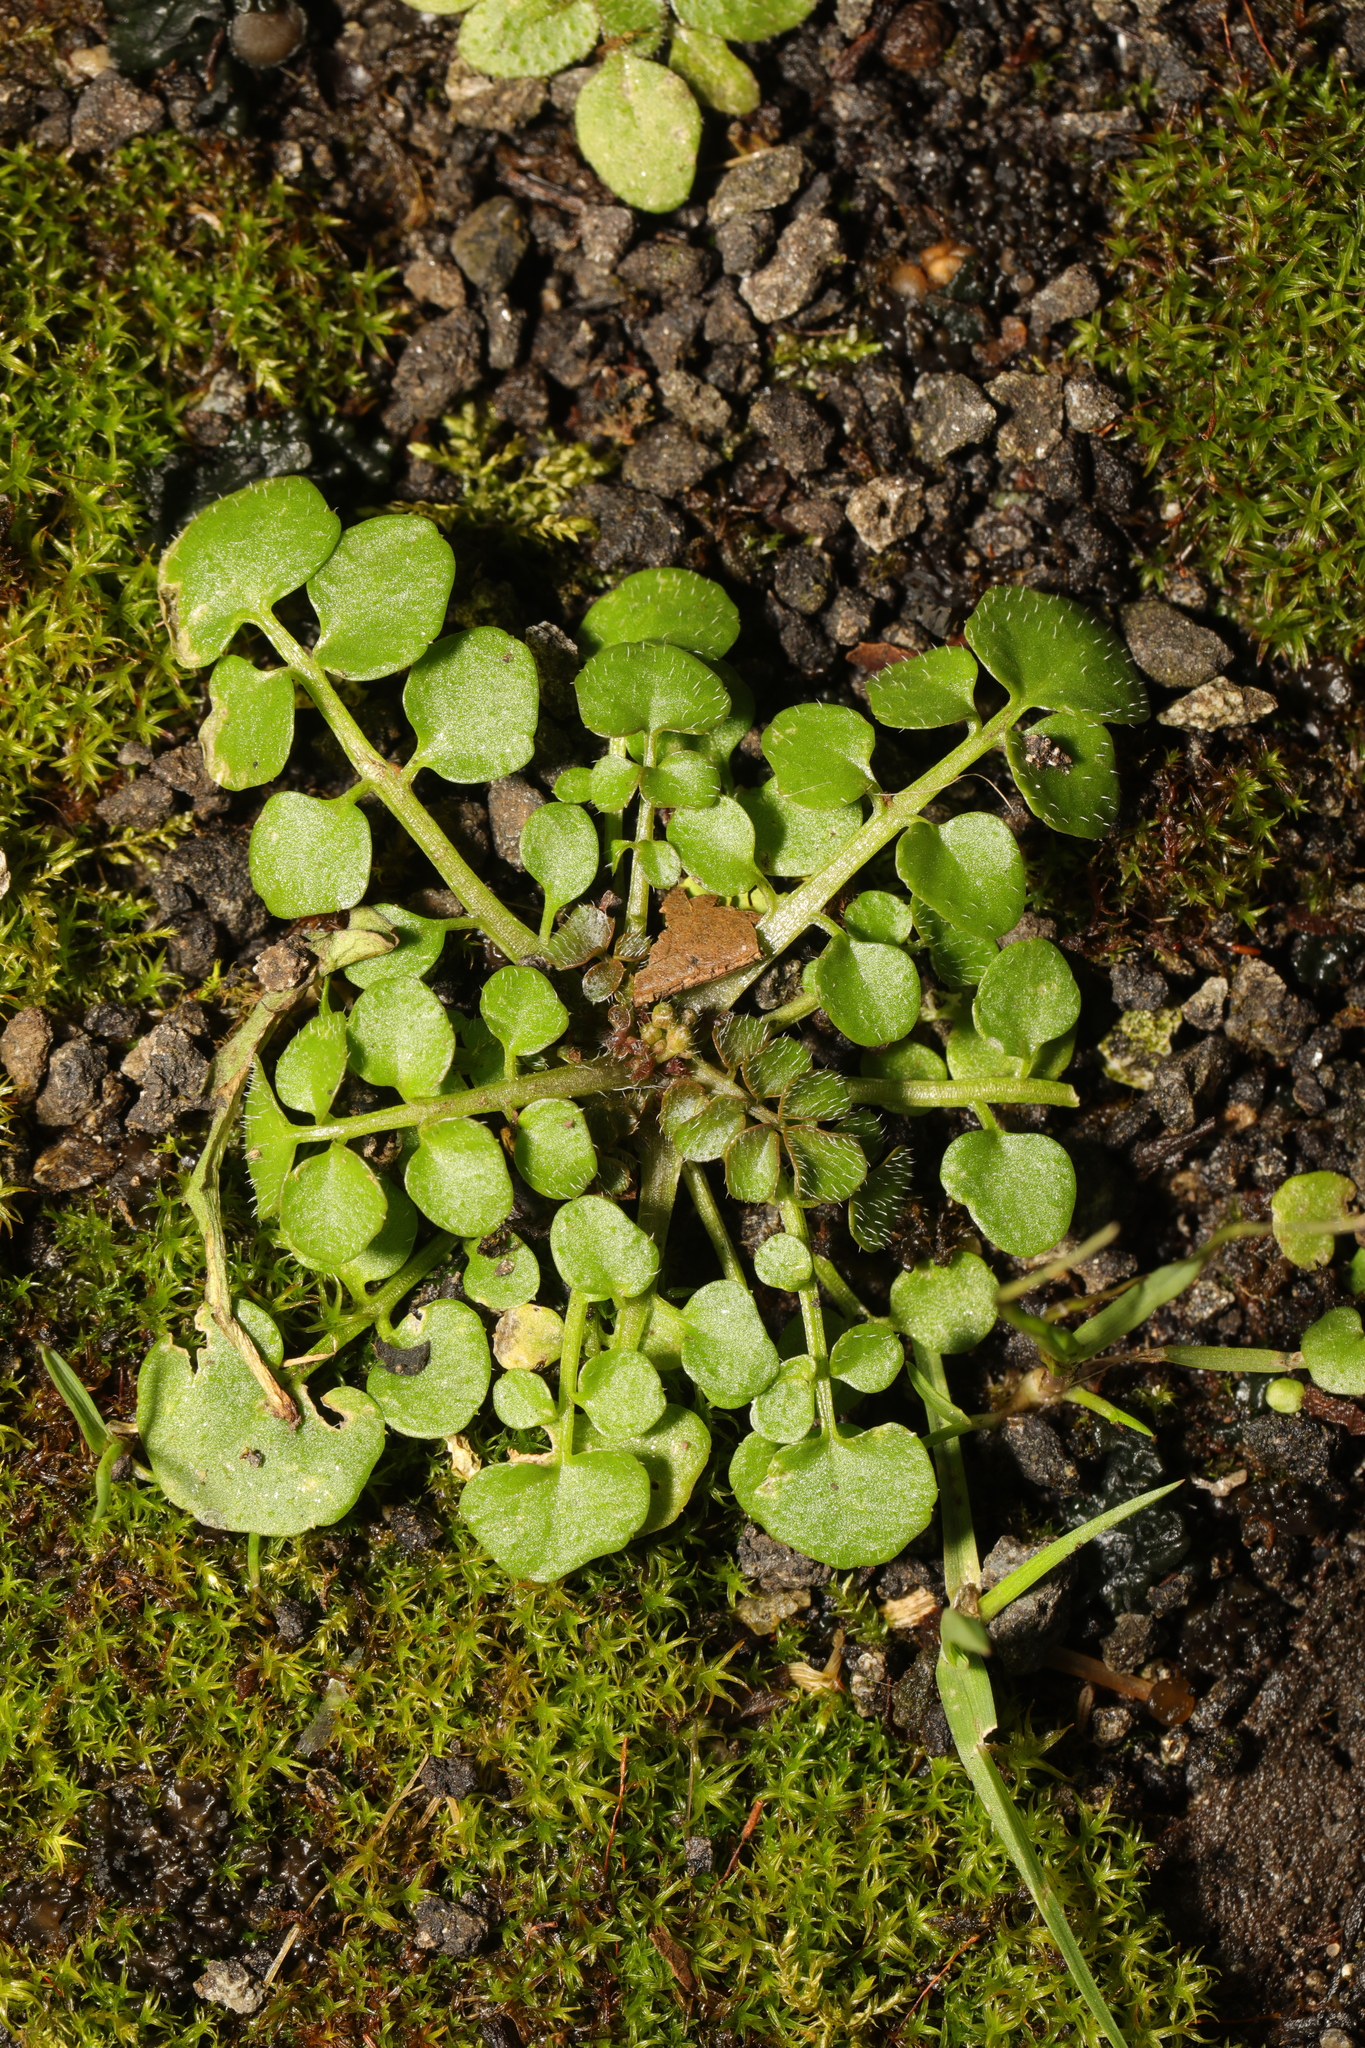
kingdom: Plantae
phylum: Tracheophyta
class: Magnoliopsida
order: Brassicales
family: Brassicaceae
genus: Cardamine
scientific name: Cardamine hirsuta
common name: Hairy bittercress
